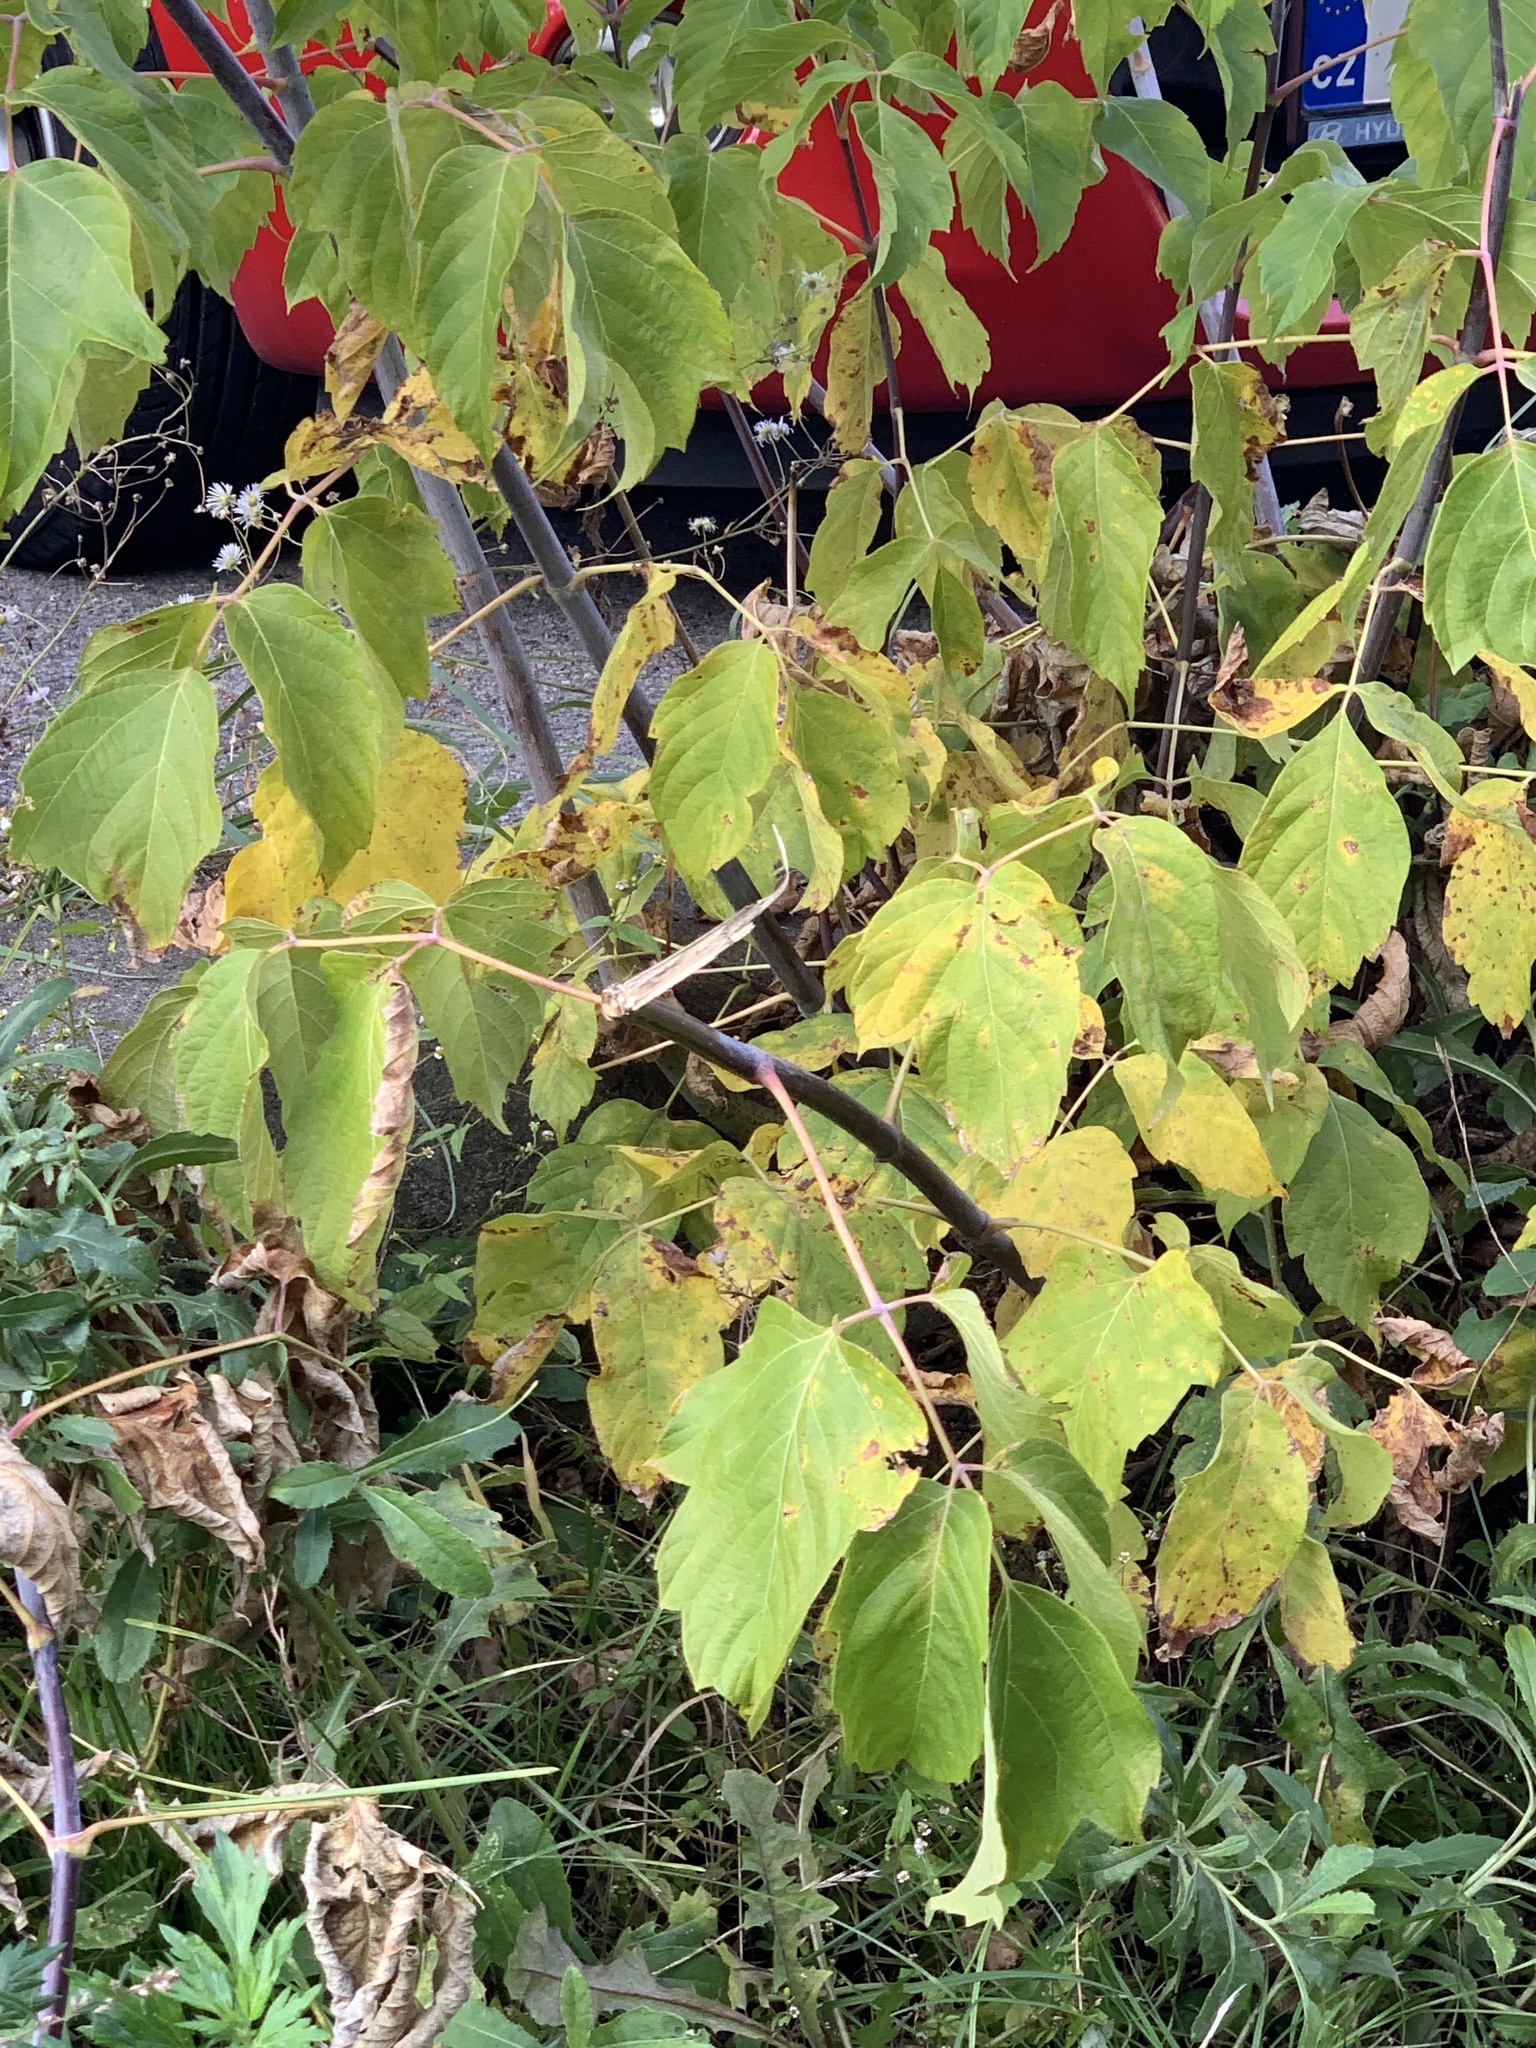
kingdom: Plantae
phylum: Tracheophyta
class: Magnoliopsida
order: Sapindales
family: Sapindaceae
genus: Acer
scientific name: Acer negundo
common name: Ashleaf maple
